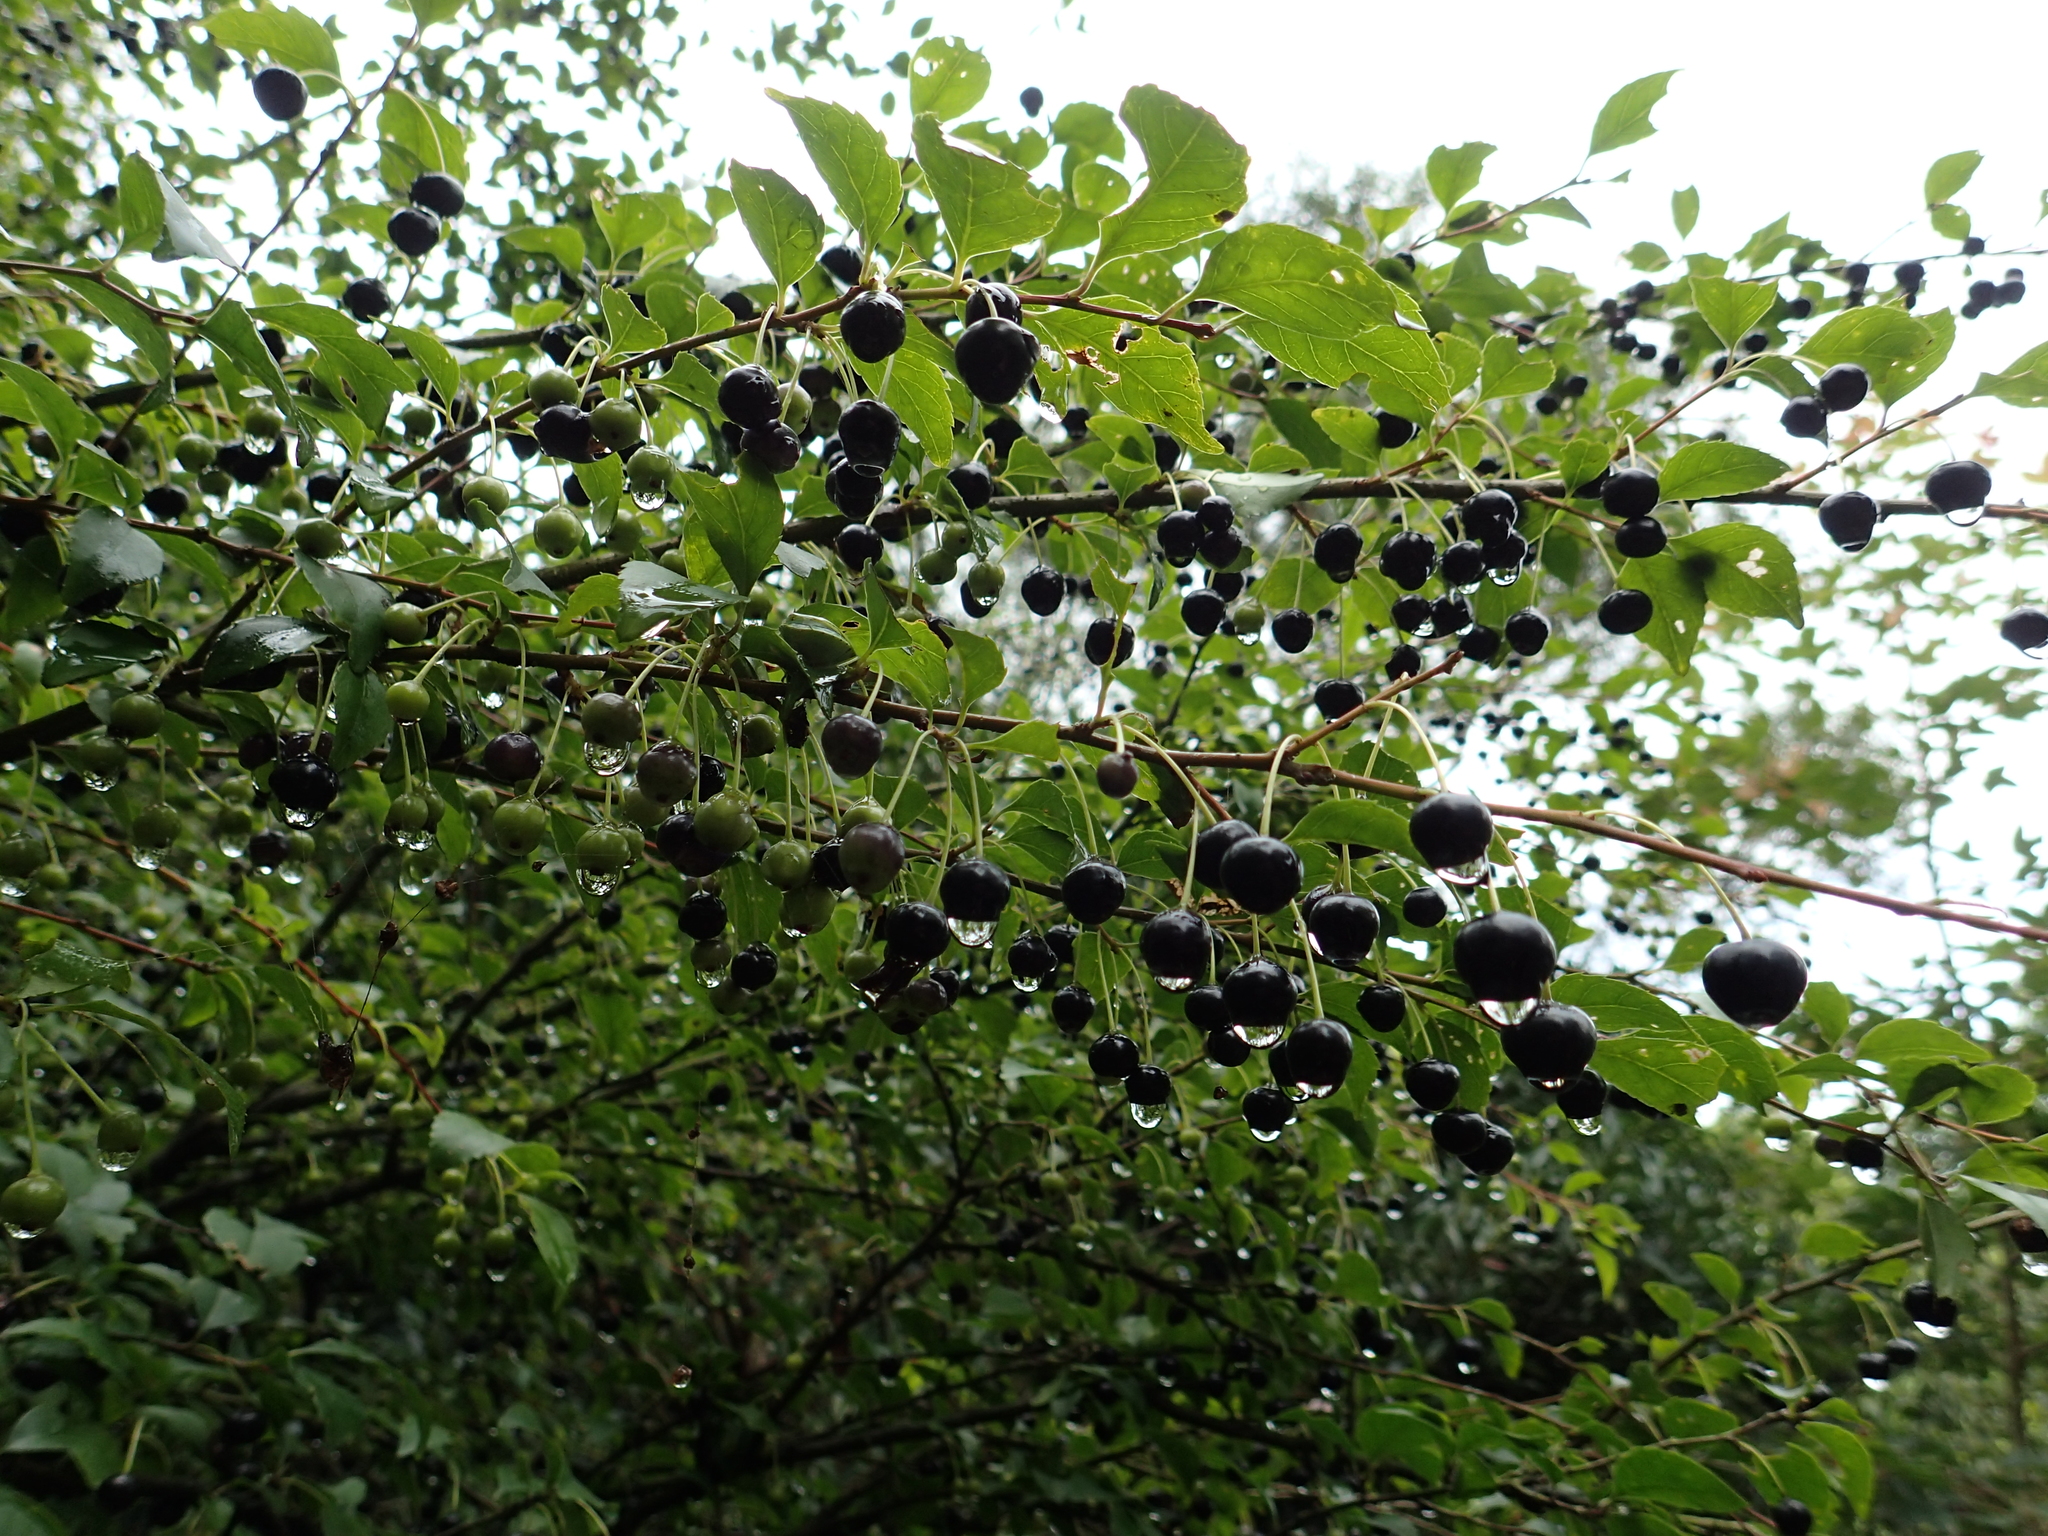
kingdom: Plantae
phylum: Tracheophyta
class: Magnoliopsida
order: Aquifoliales
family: Aquifoliaceae
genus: Ilex
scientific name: Ilex asprella
